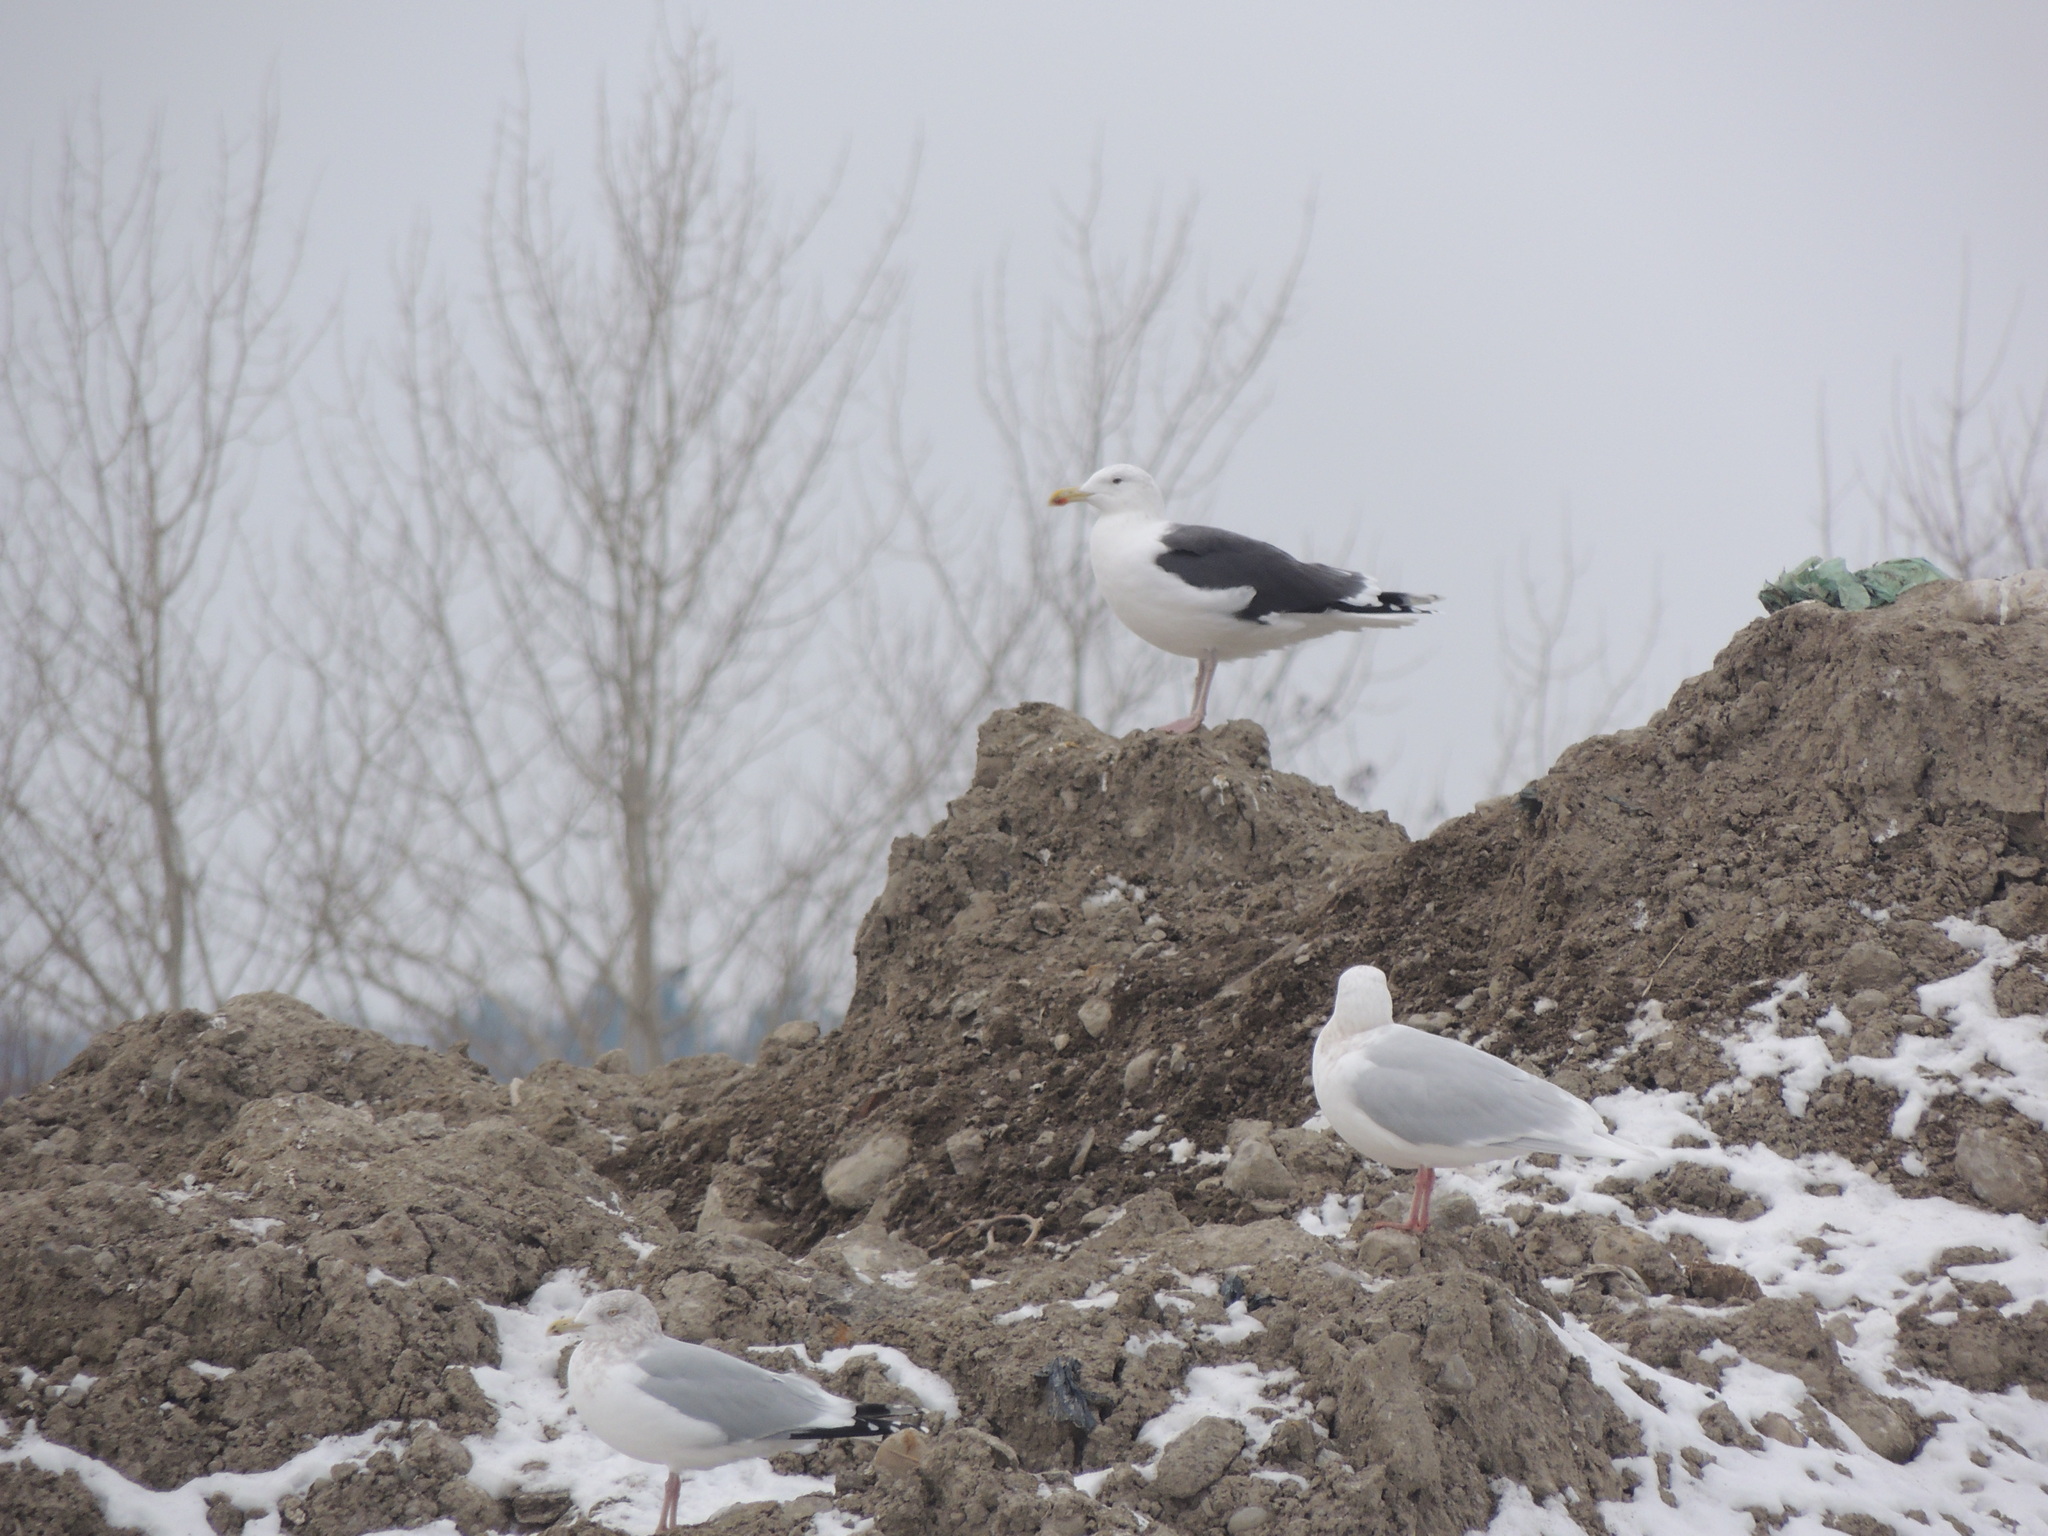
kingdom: Animalia
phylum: Chordata
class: Aves
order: Charadriiformes
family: Laridae
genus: Larus
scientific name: Larus marinus
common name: Great black-backed gull
